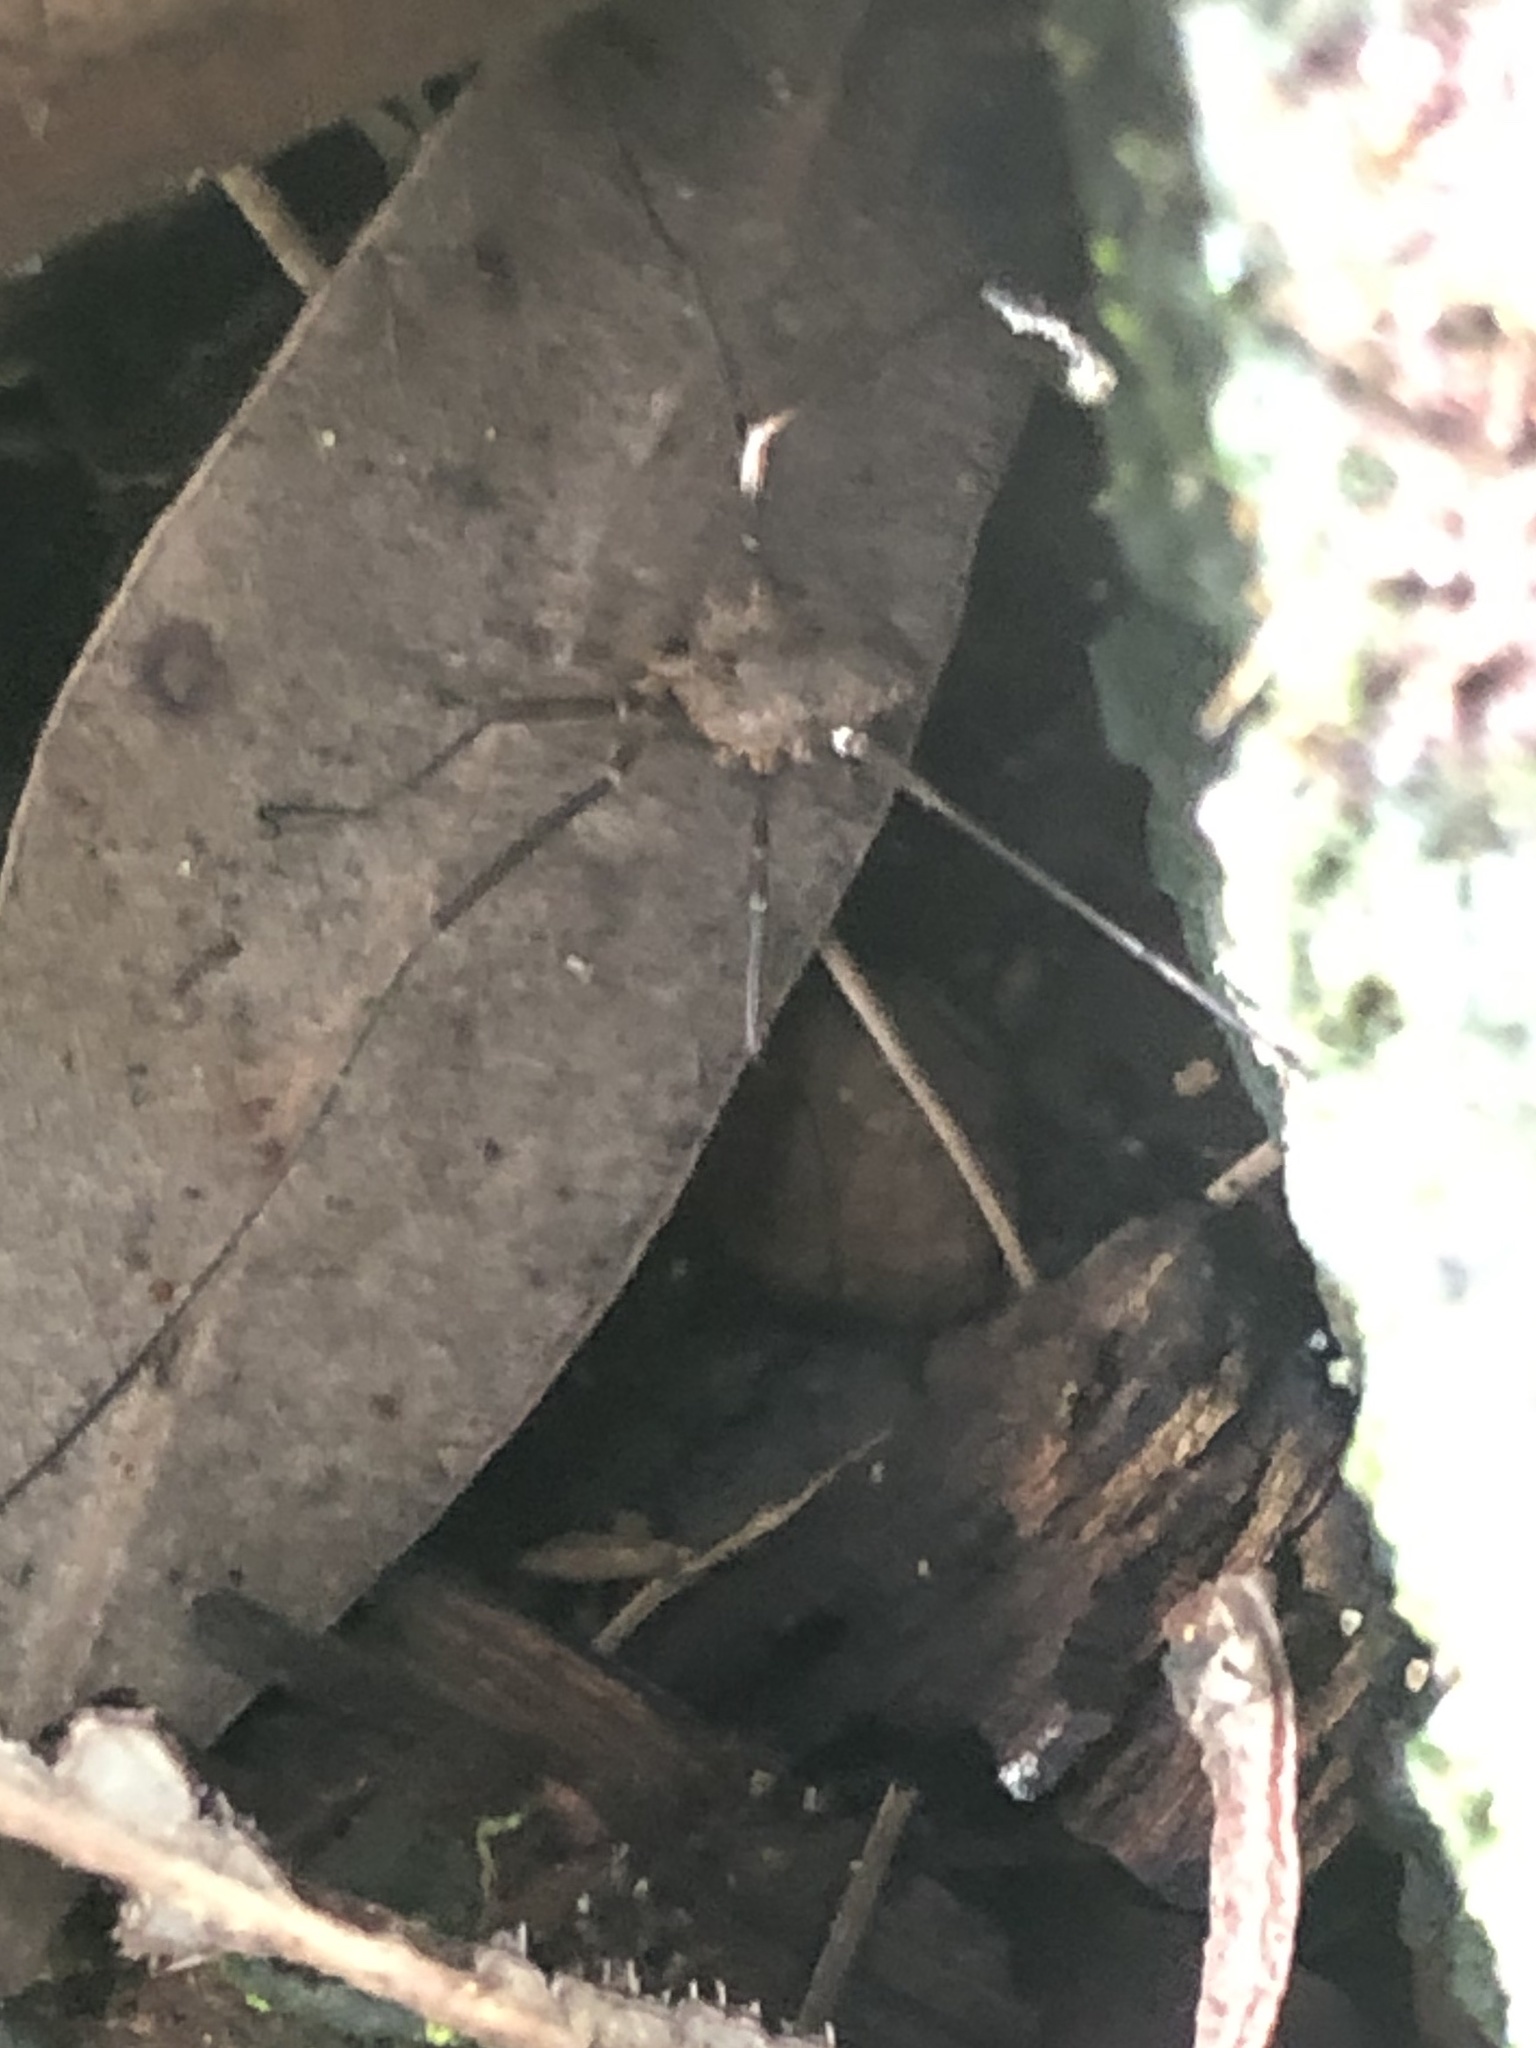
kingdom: Animalia
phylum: Arthropoda
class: Arachnida
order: Opiliones
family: Phalangiidae
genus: Phalangium
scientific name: Phalangium opilio
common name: Daddy longleg
